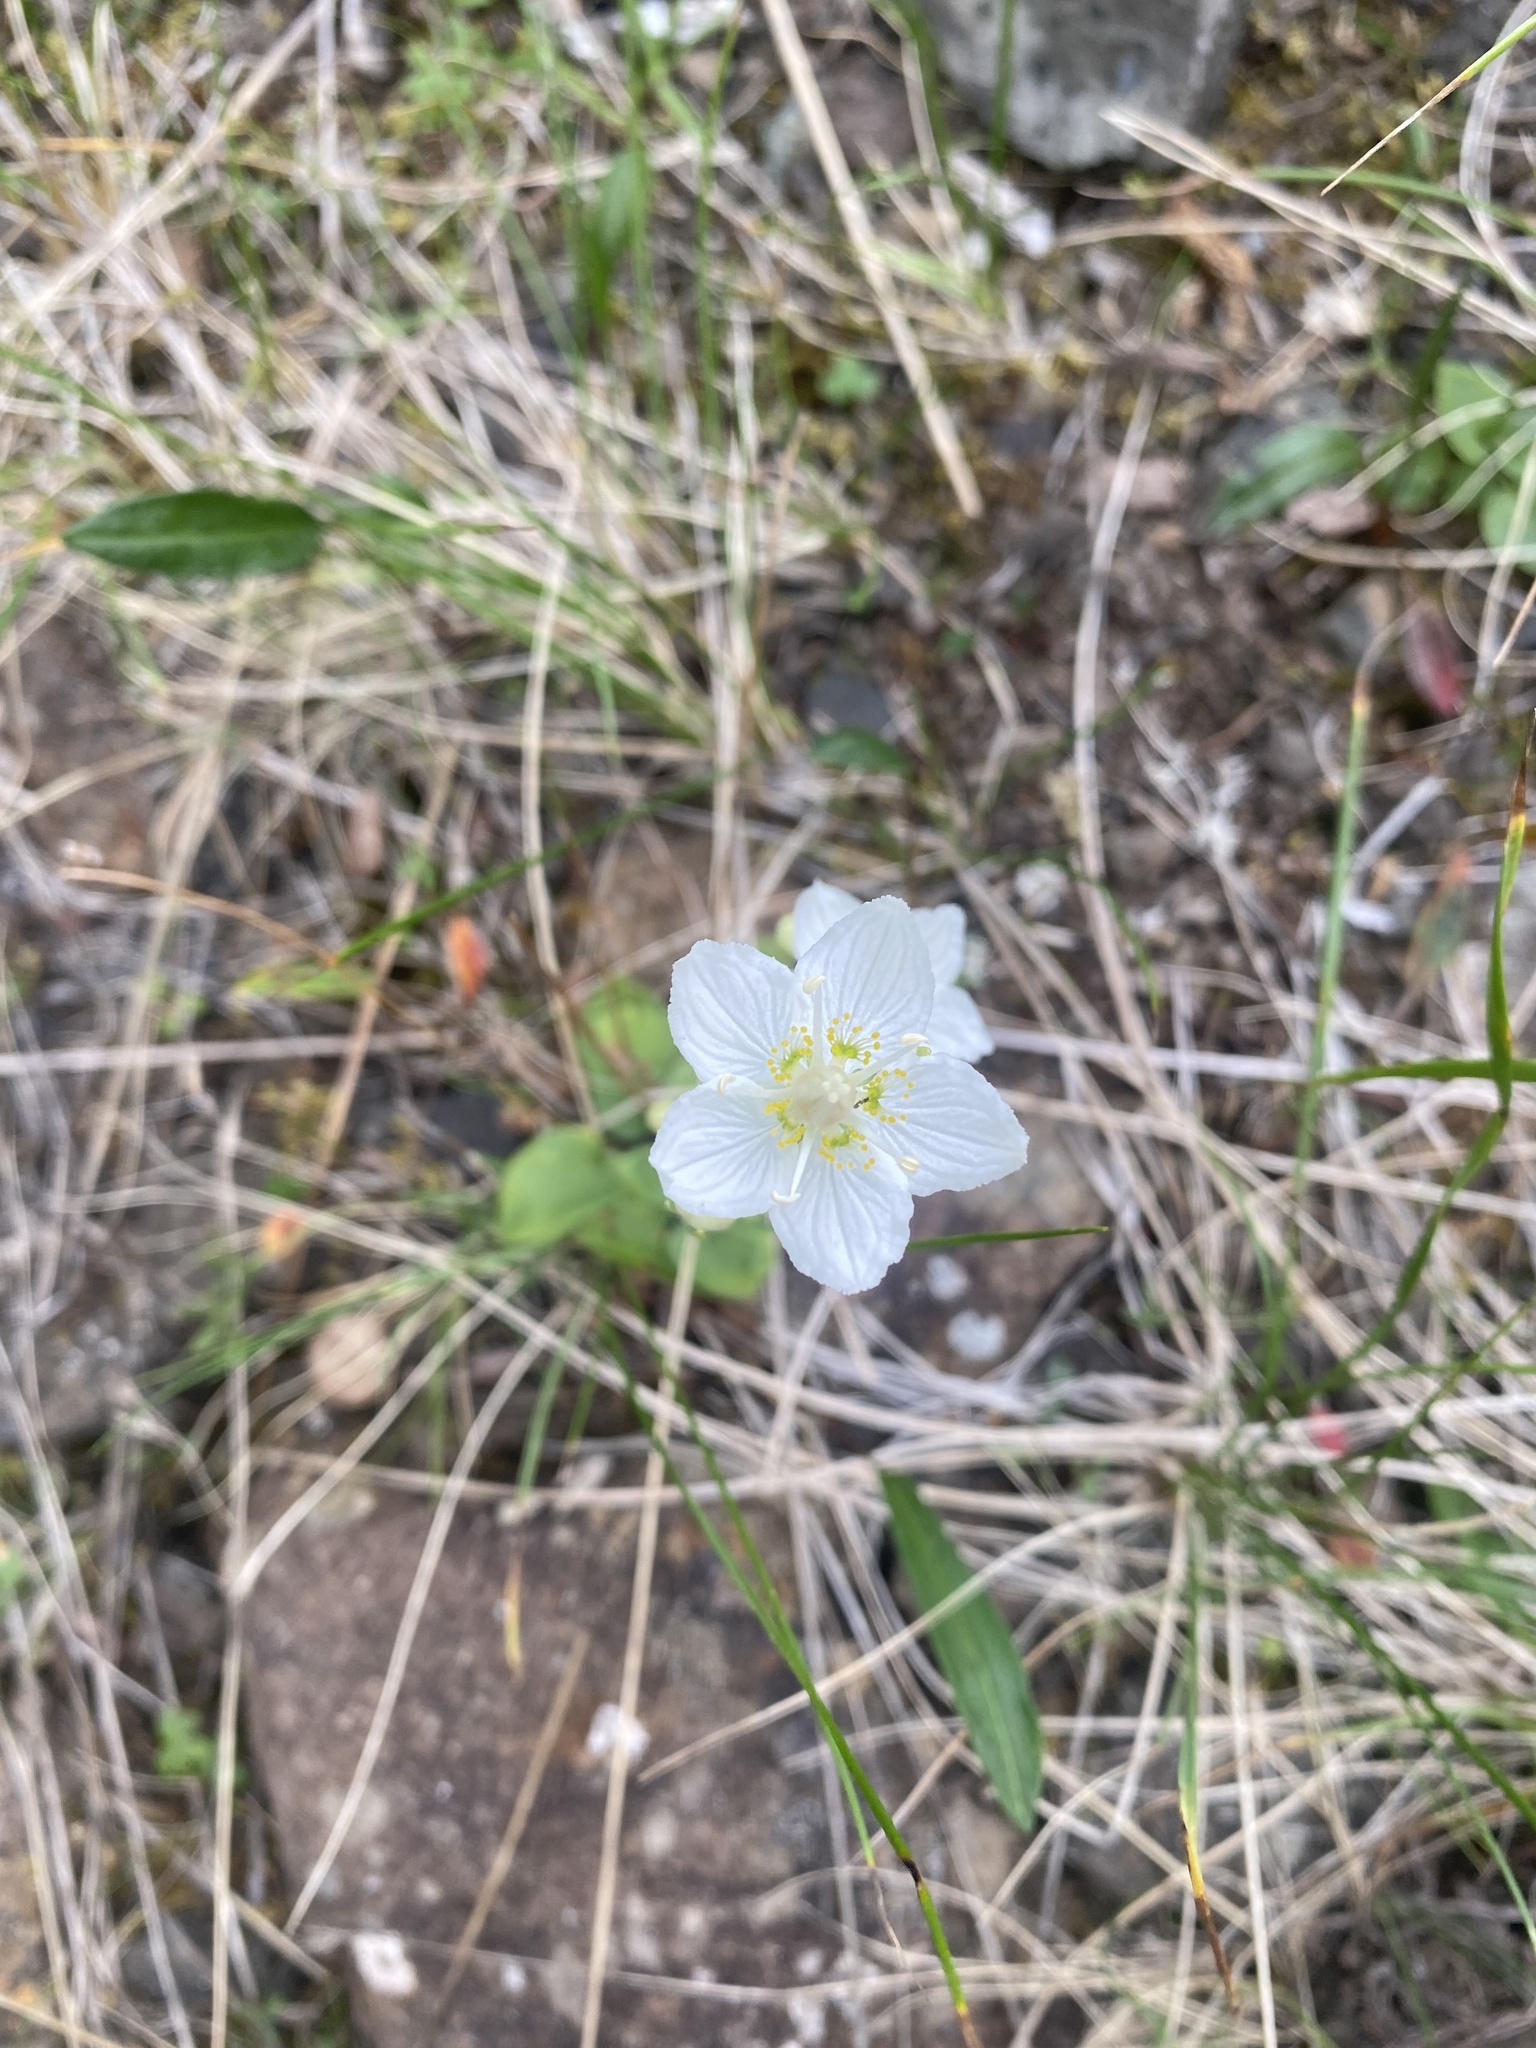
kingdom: Plantae
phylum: Tracheophyta
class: Magnoliopsida
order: Celastrales
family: Parnassiaceae
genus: Parnassia
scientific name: Parnassia palustris
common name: Grass-of-parnassus
